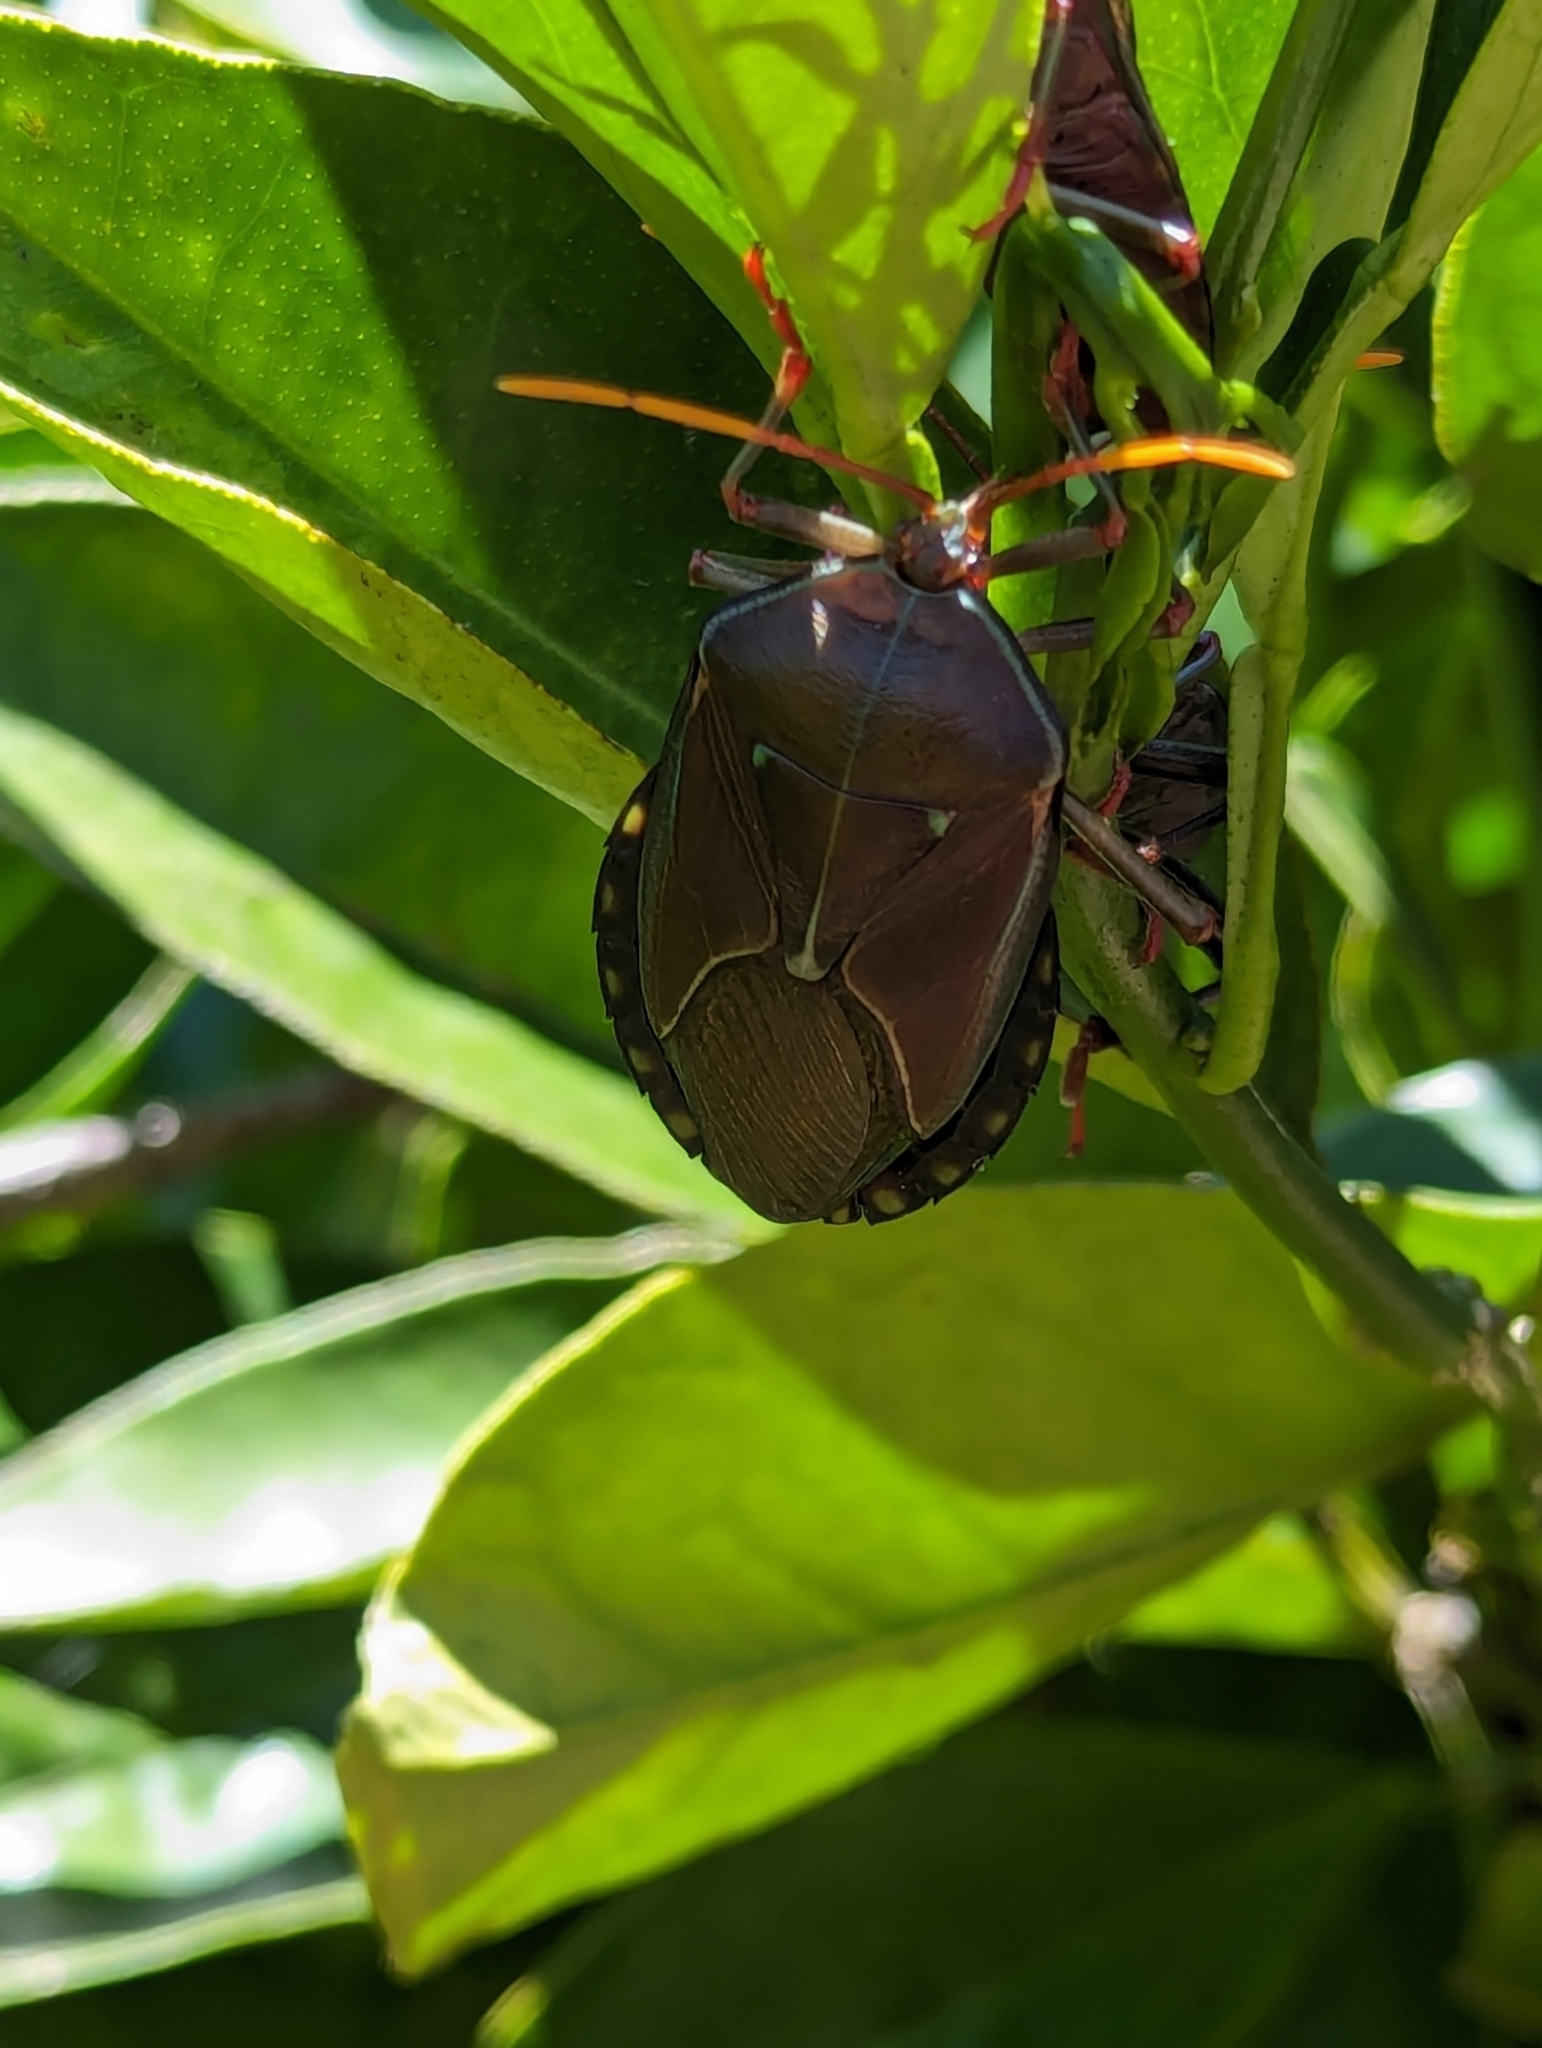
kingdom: Animalia
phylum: Arthropoda
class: Insecta
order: Hemiptera
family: Tessaratomidae
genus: Musgraveia
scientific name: Musgraveia sulciventris
